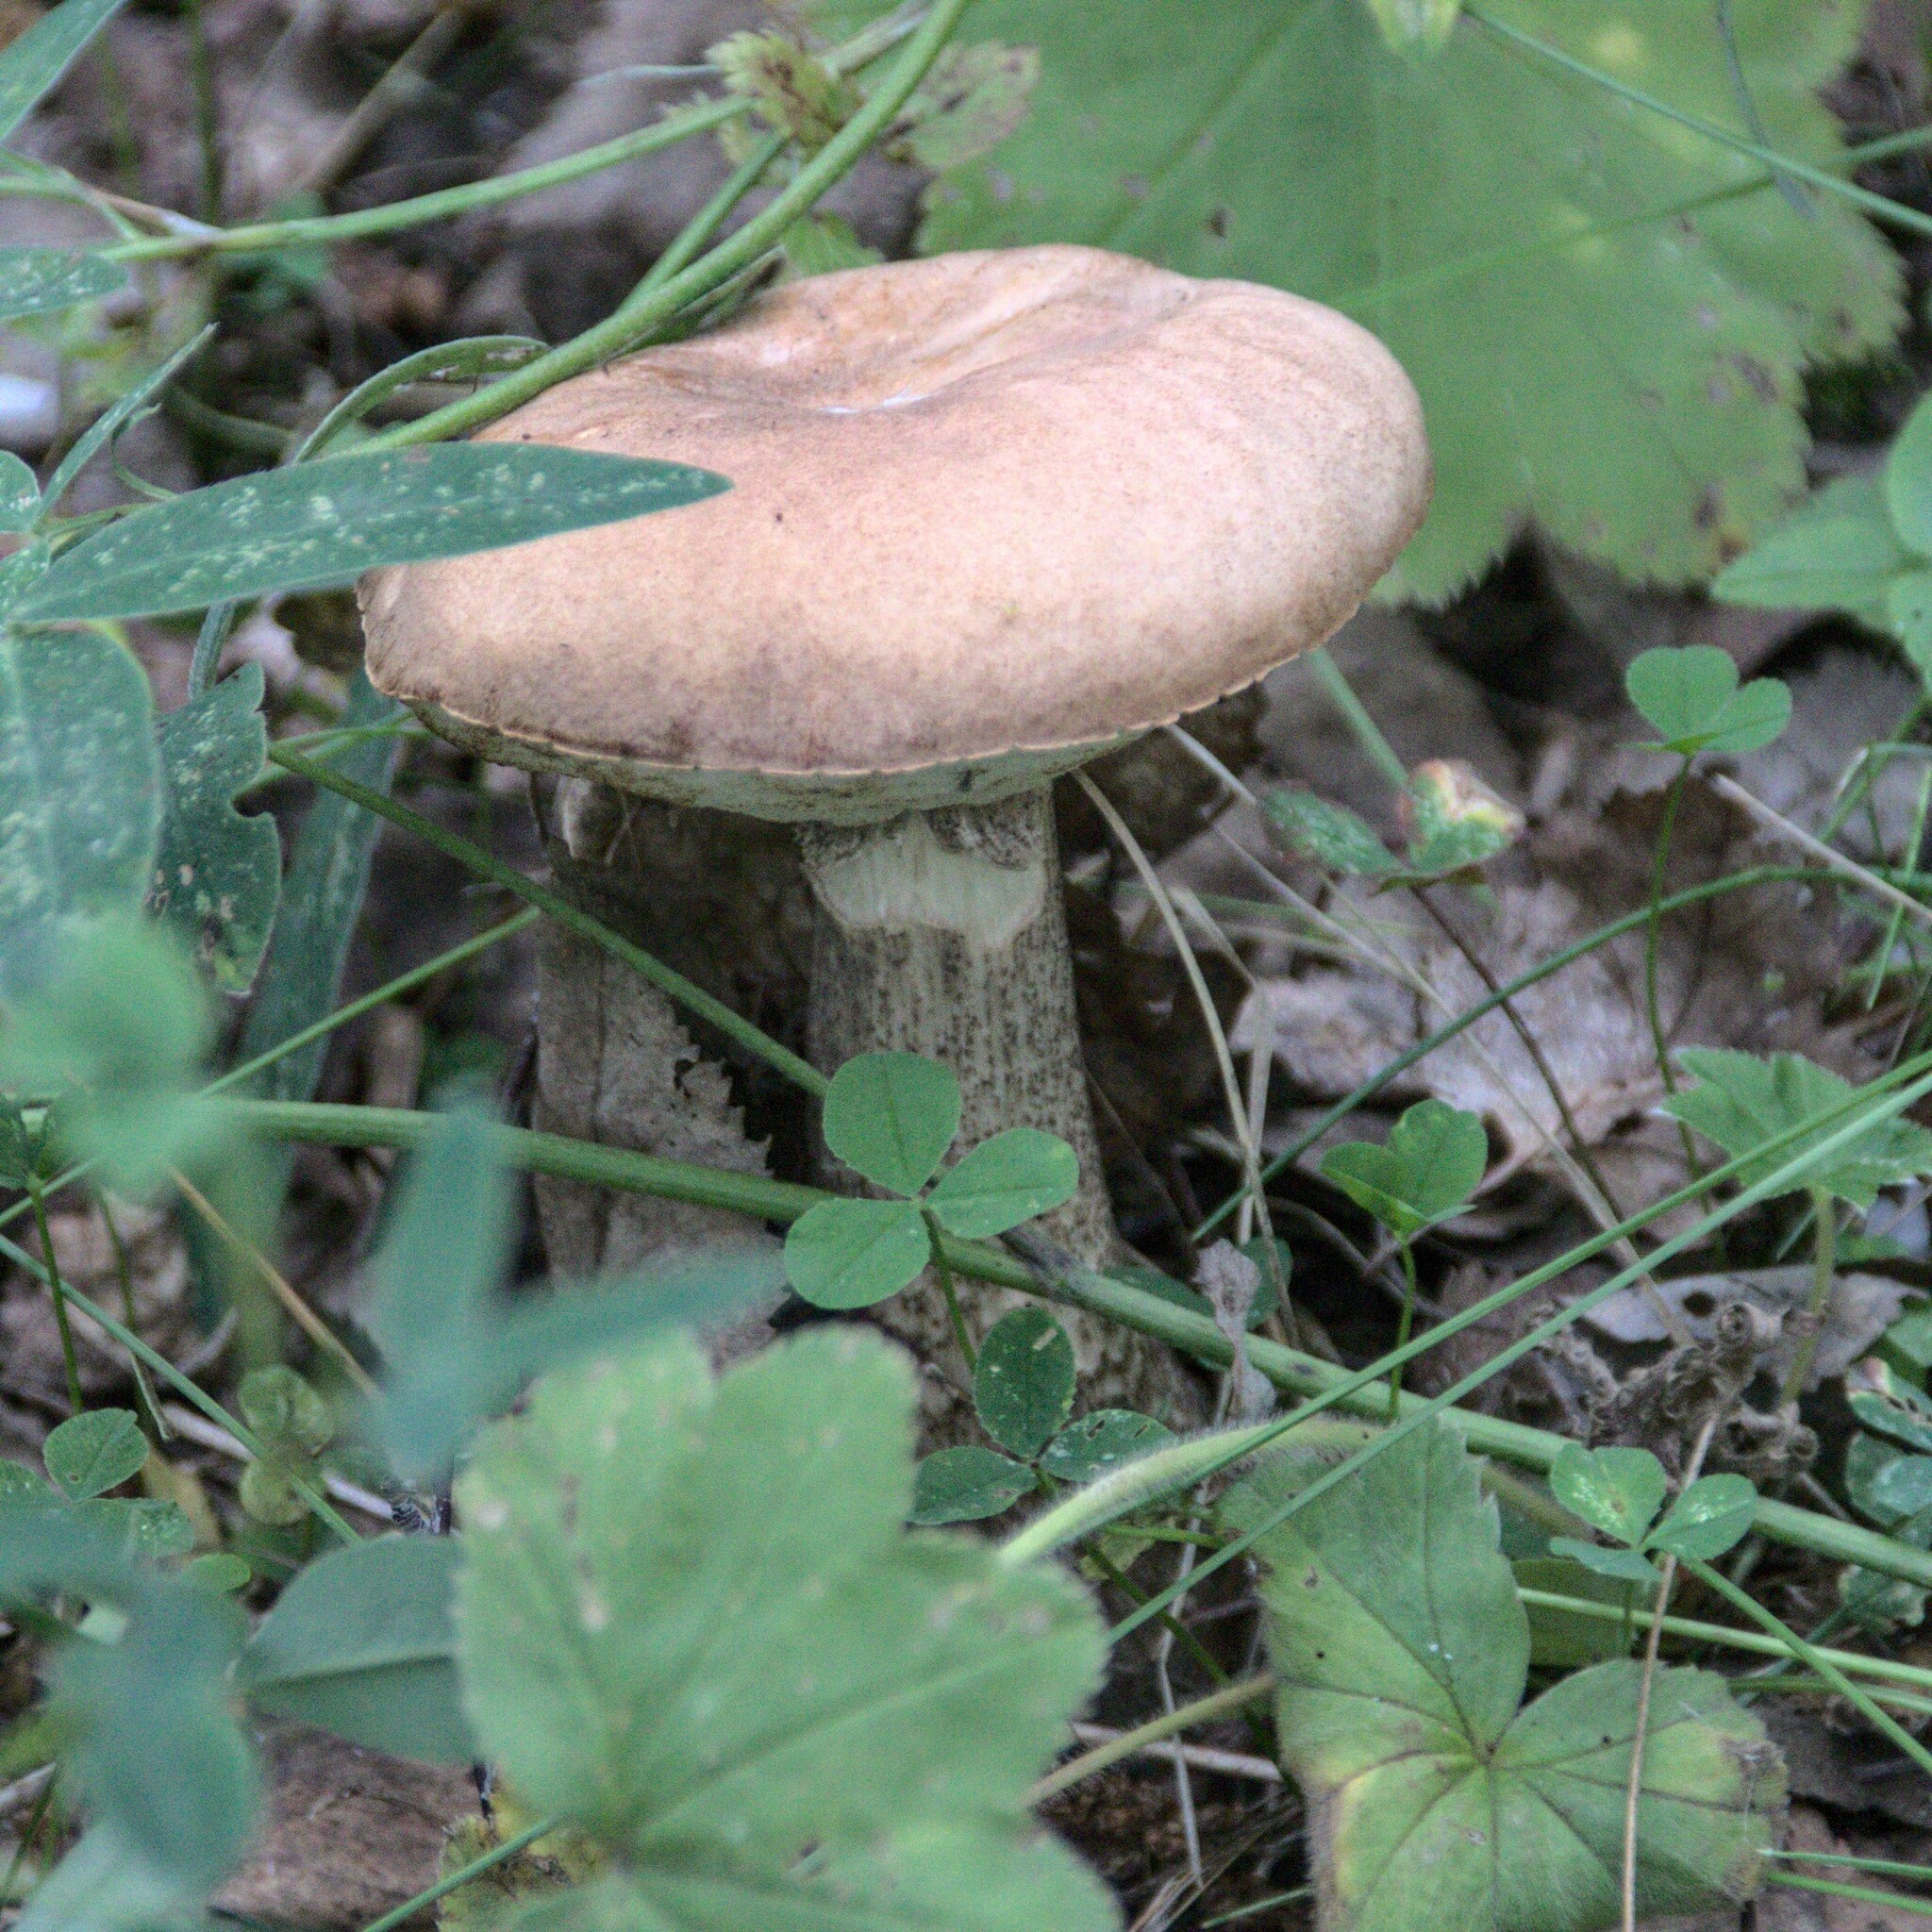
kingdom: Fungi
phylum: Basidiomycota
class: Agaricomycetes
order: Boletales
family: Boletaceae
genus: Leccinum
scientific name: Leccinum scabrum
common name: Blushing bolete
